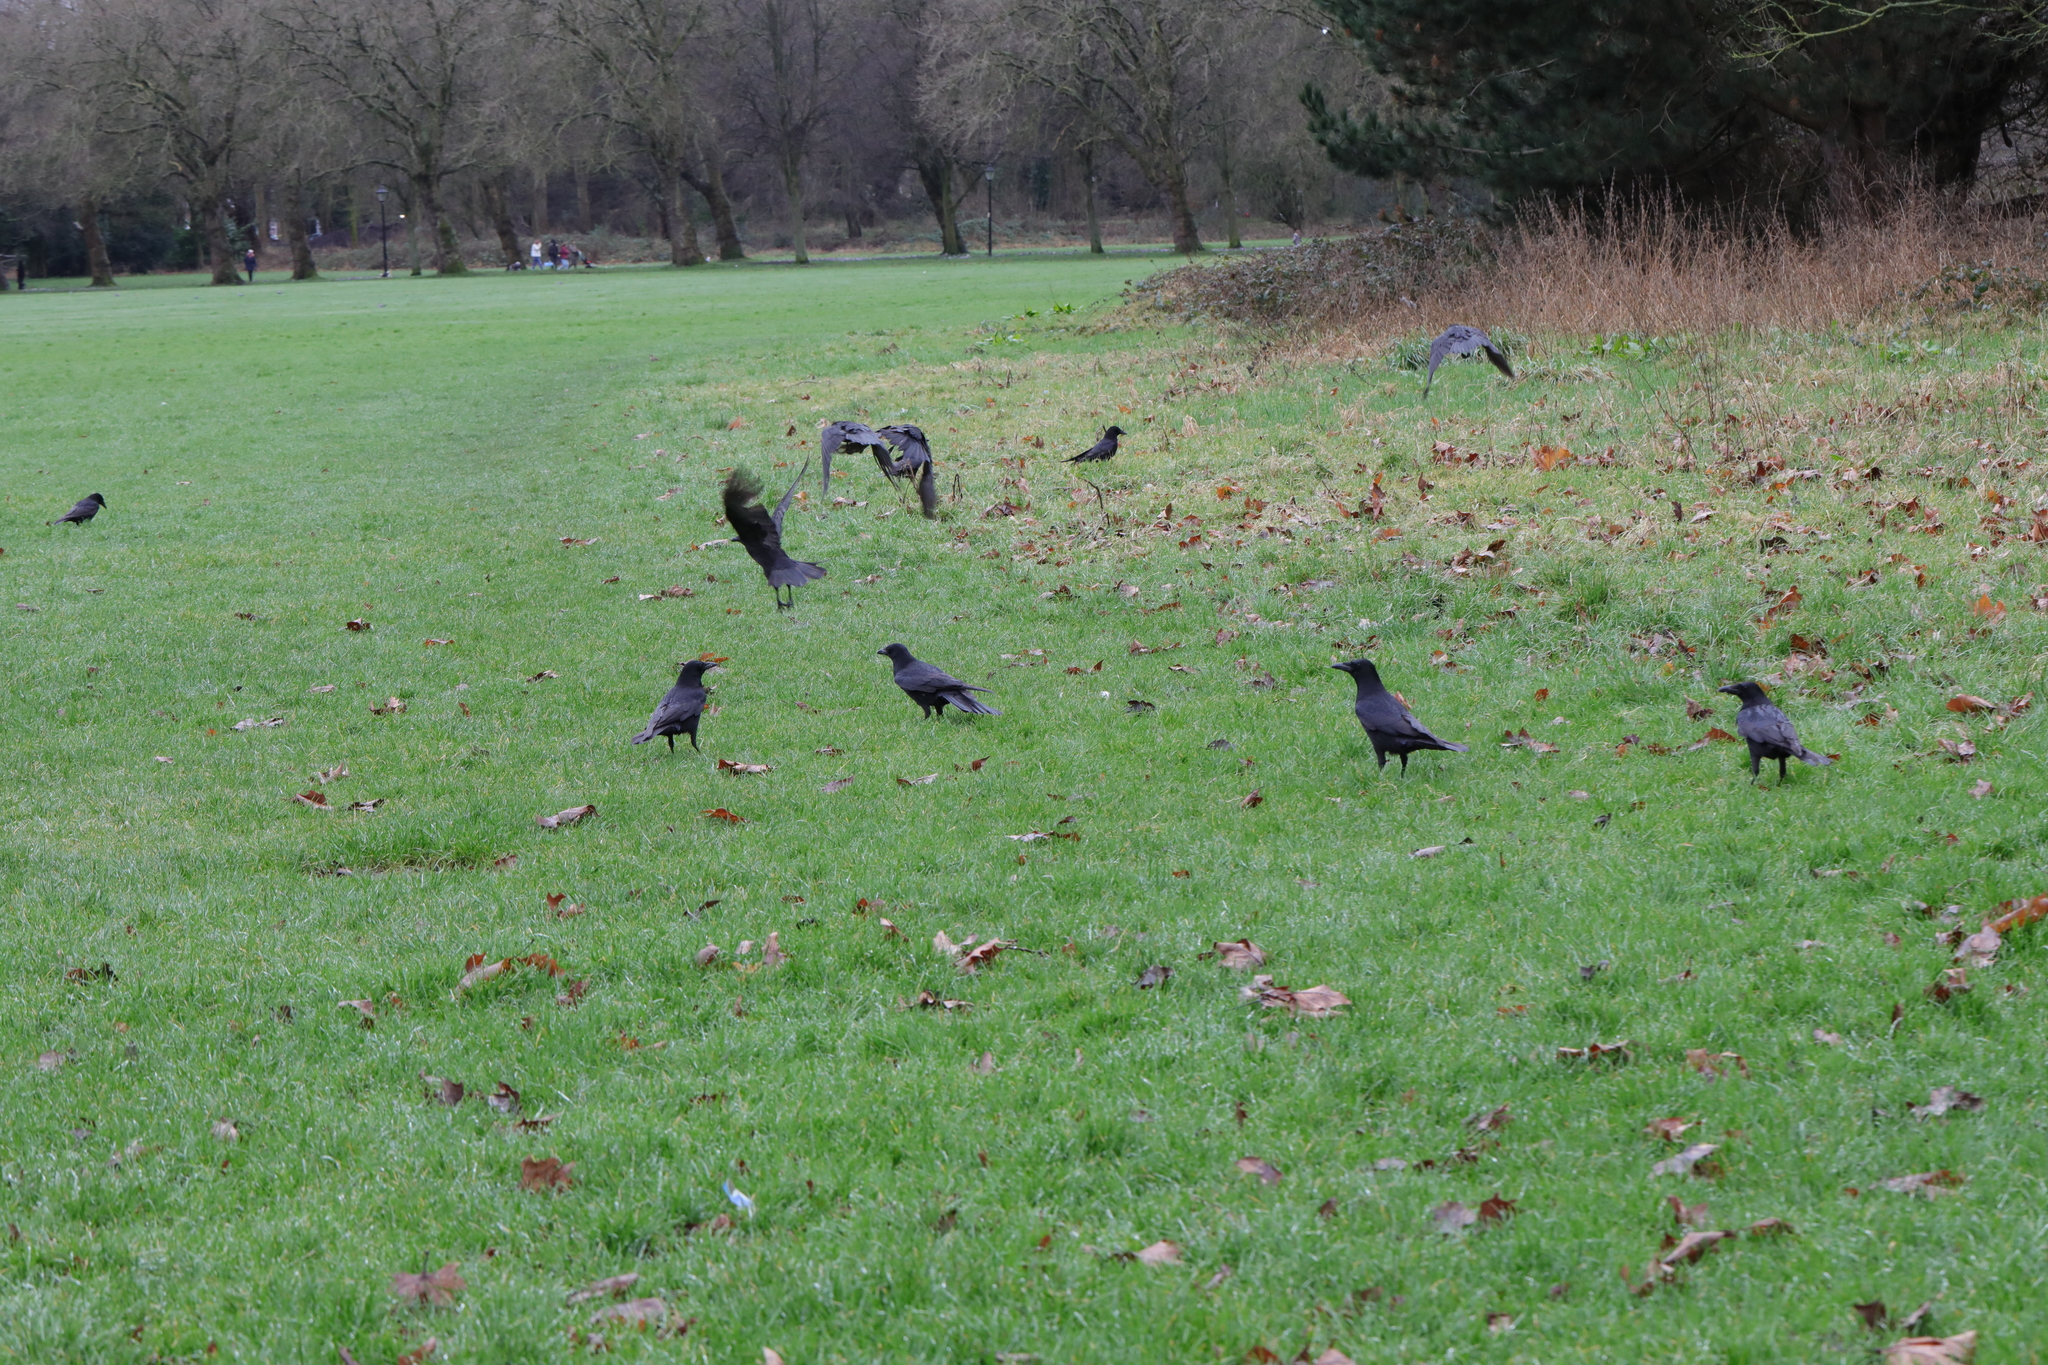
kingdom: Animalia
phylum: Chordata
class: Aves
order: Passeriformes
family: Corvidae
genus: Corvus
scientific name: Corvus corone
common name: Carrion crow
